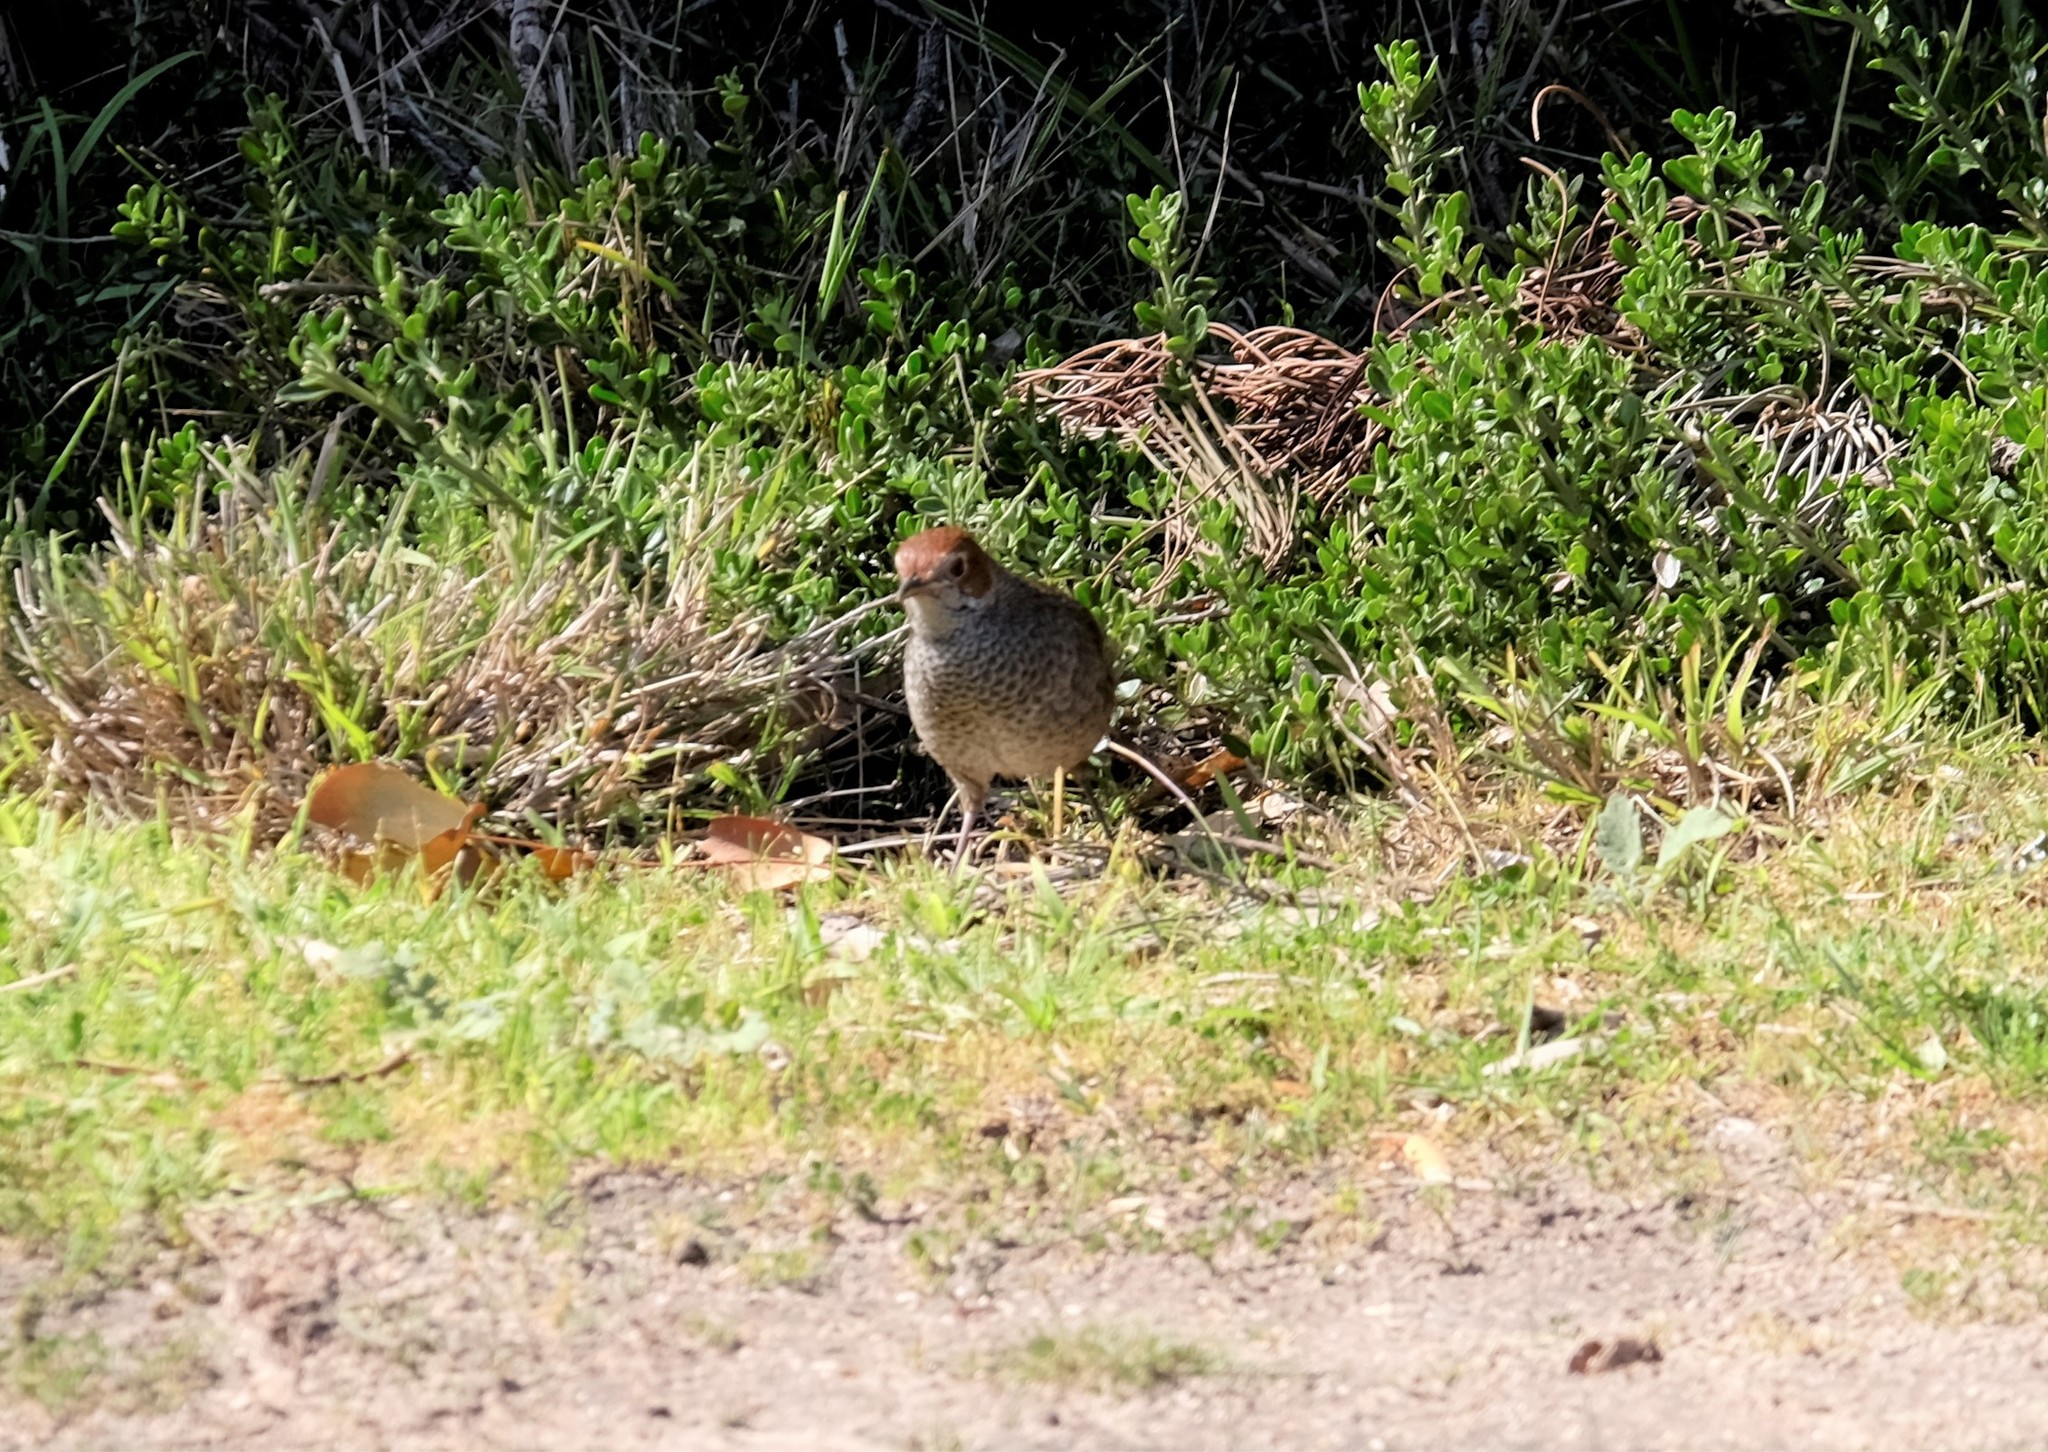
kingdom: Animalia
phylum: Chordata
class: Aves
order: Passeriformes
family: Dasyornithidae
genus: Dasyornis
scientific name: Dasyornis broadbenti
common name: Rufous bristlebird
